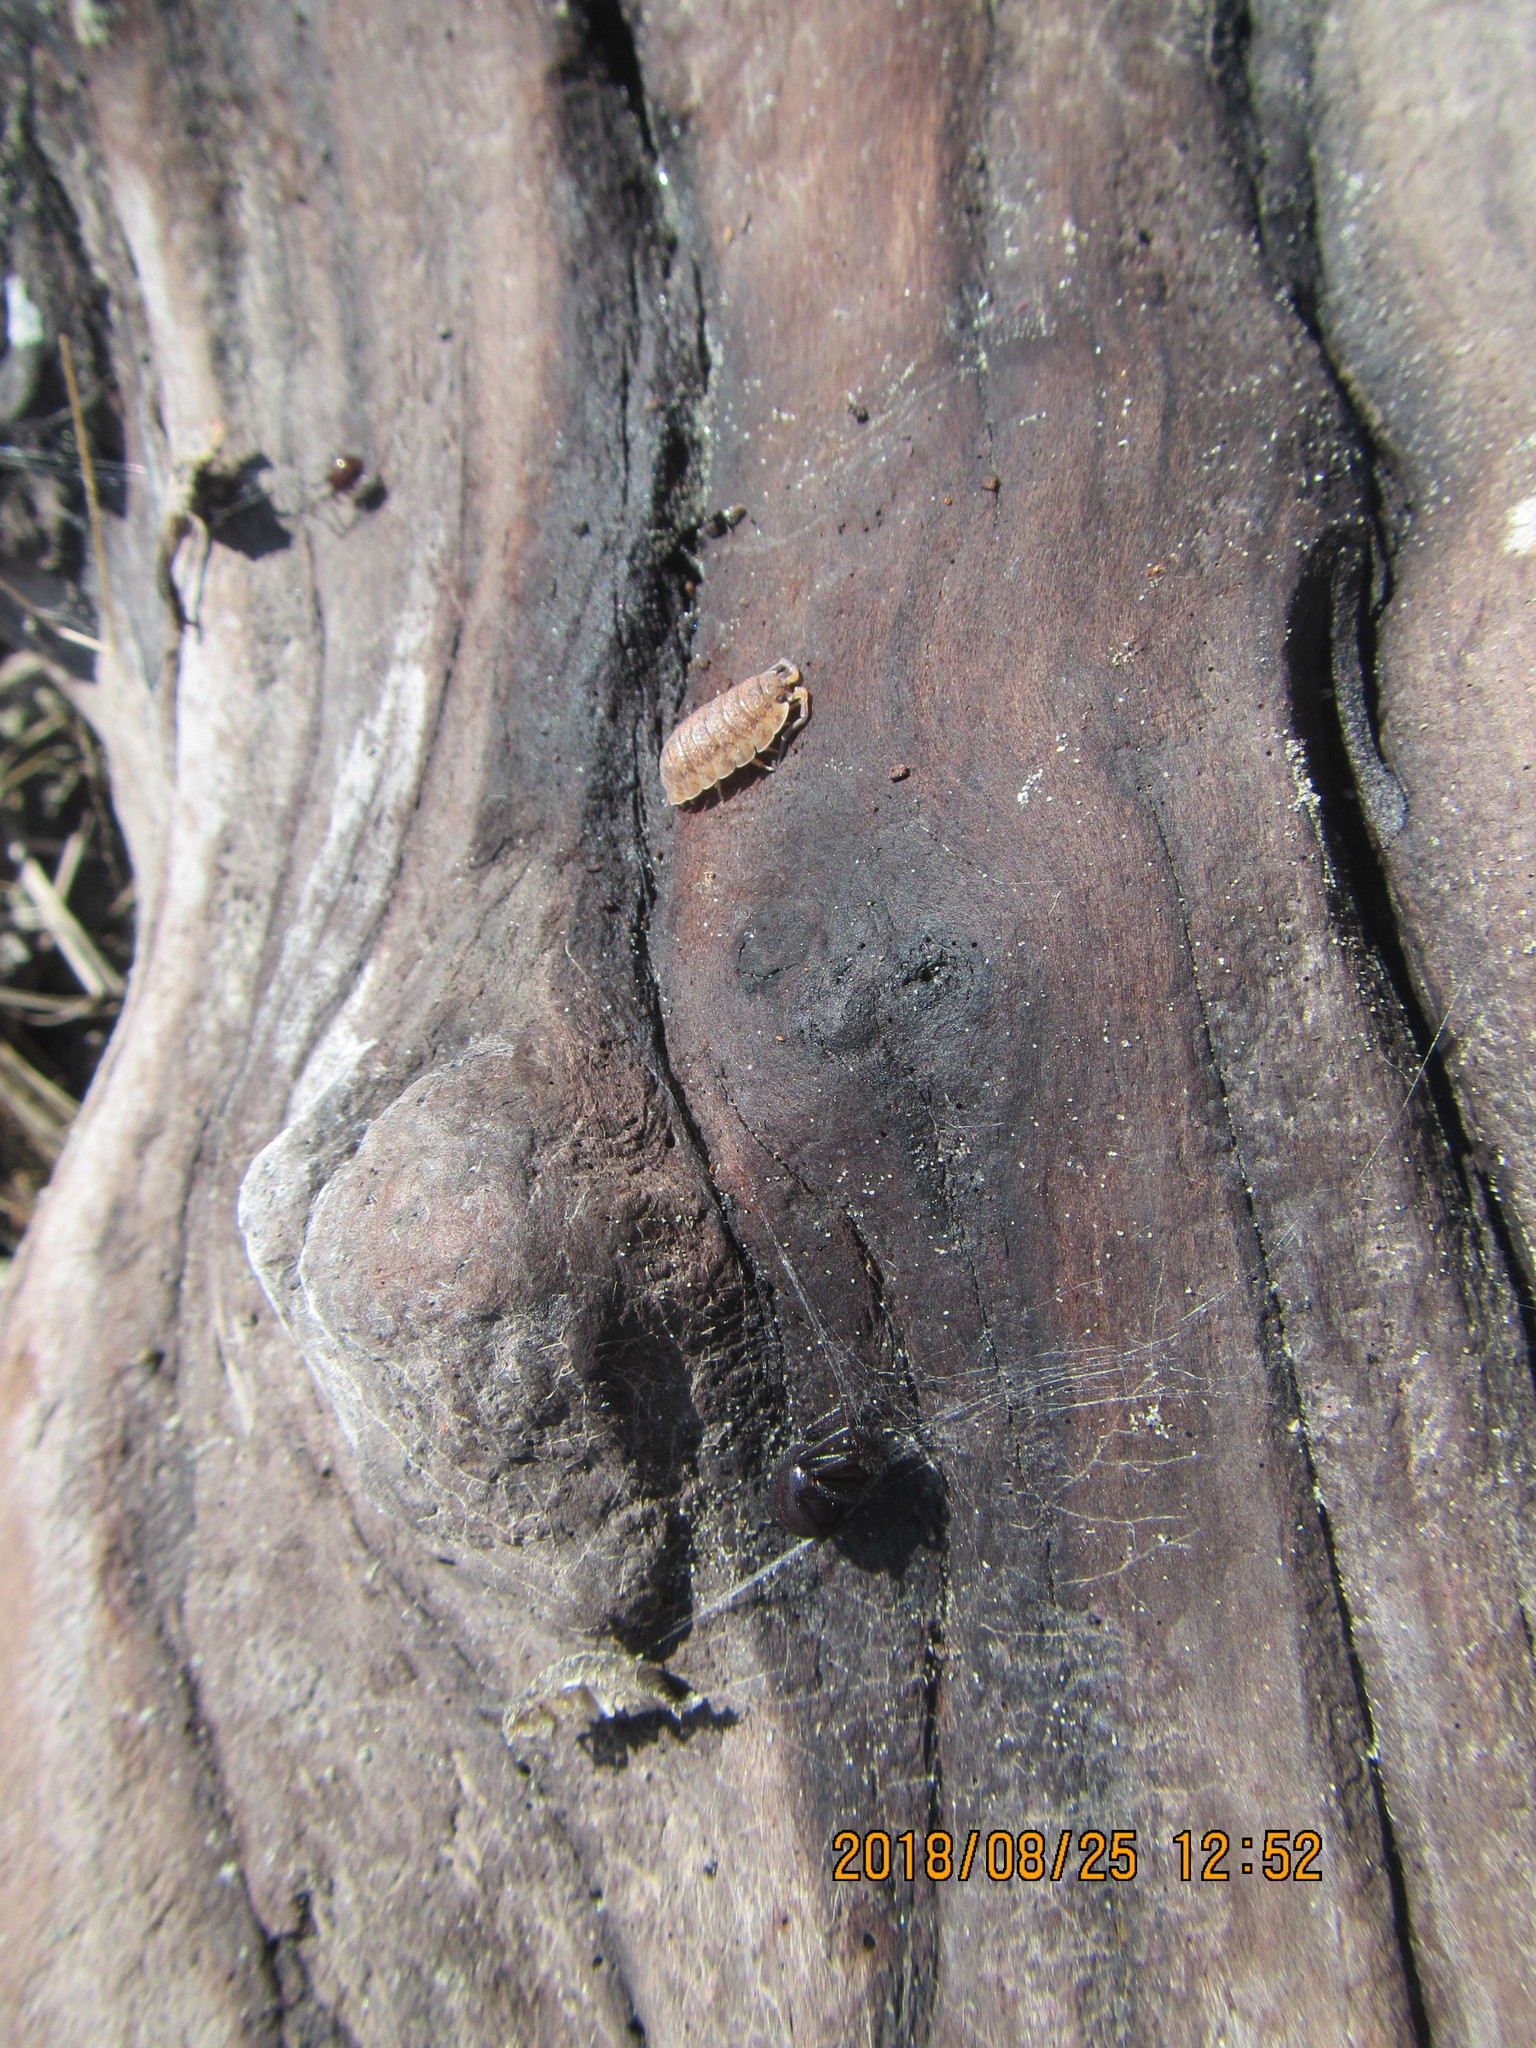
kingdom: Animalia
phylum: Arthropoda
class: Arachnida
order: Araneae
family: Theridiidae
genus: Steatoda
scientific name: Steatoda capensis
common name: Cobweb weaver
